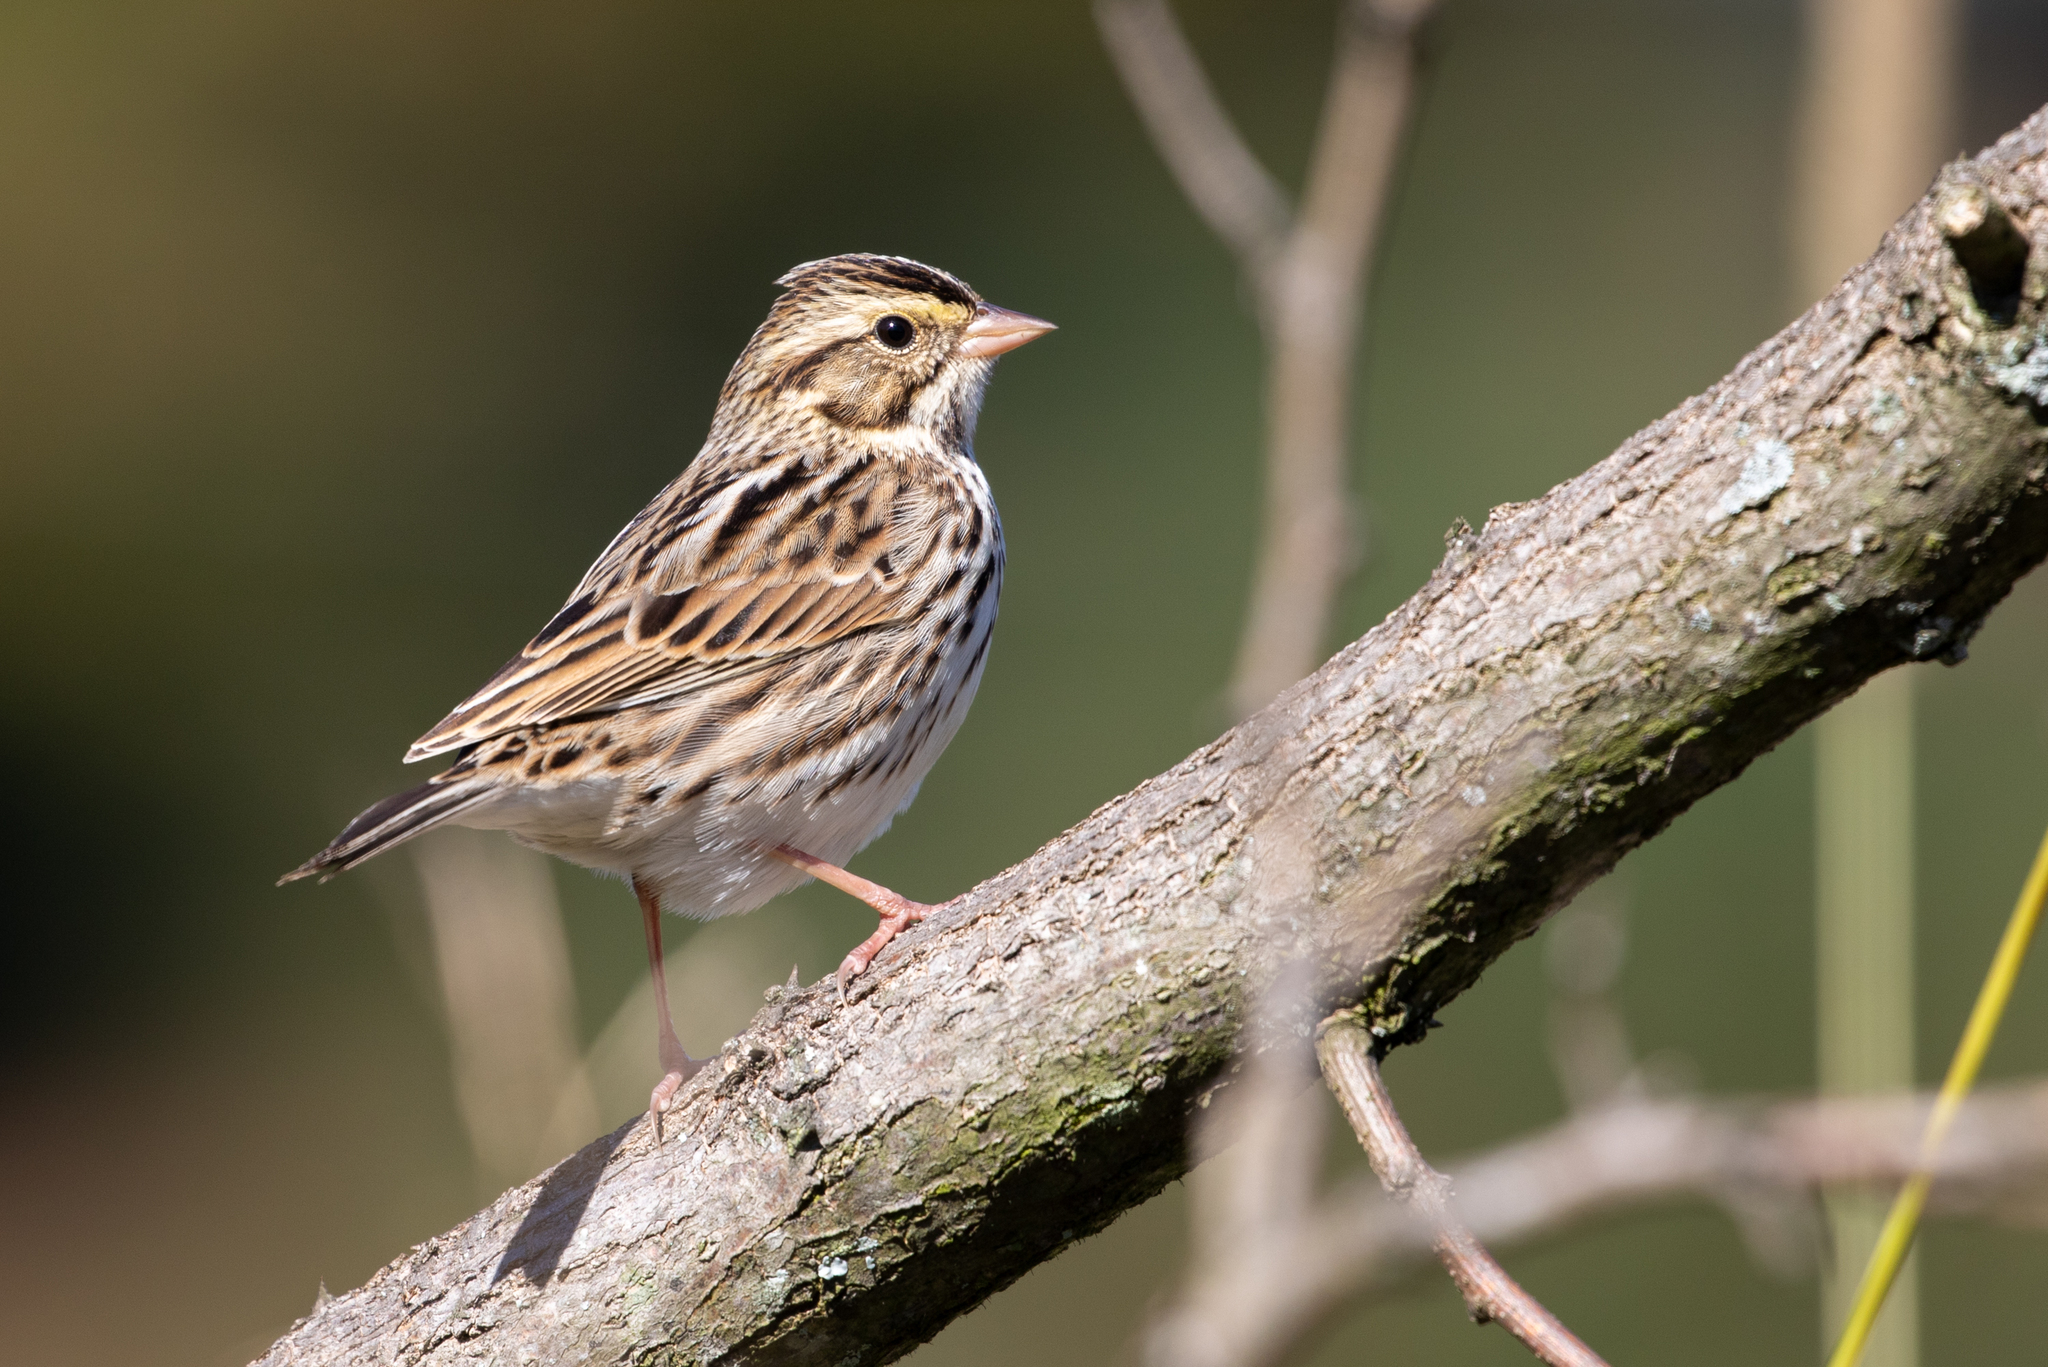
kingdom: Animalia
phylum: Chordata
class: Aves
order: Passeriformes
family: Passerellidae
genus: Passerculus
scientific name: Passerculus sandwichensis
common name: Savannah sparrow
